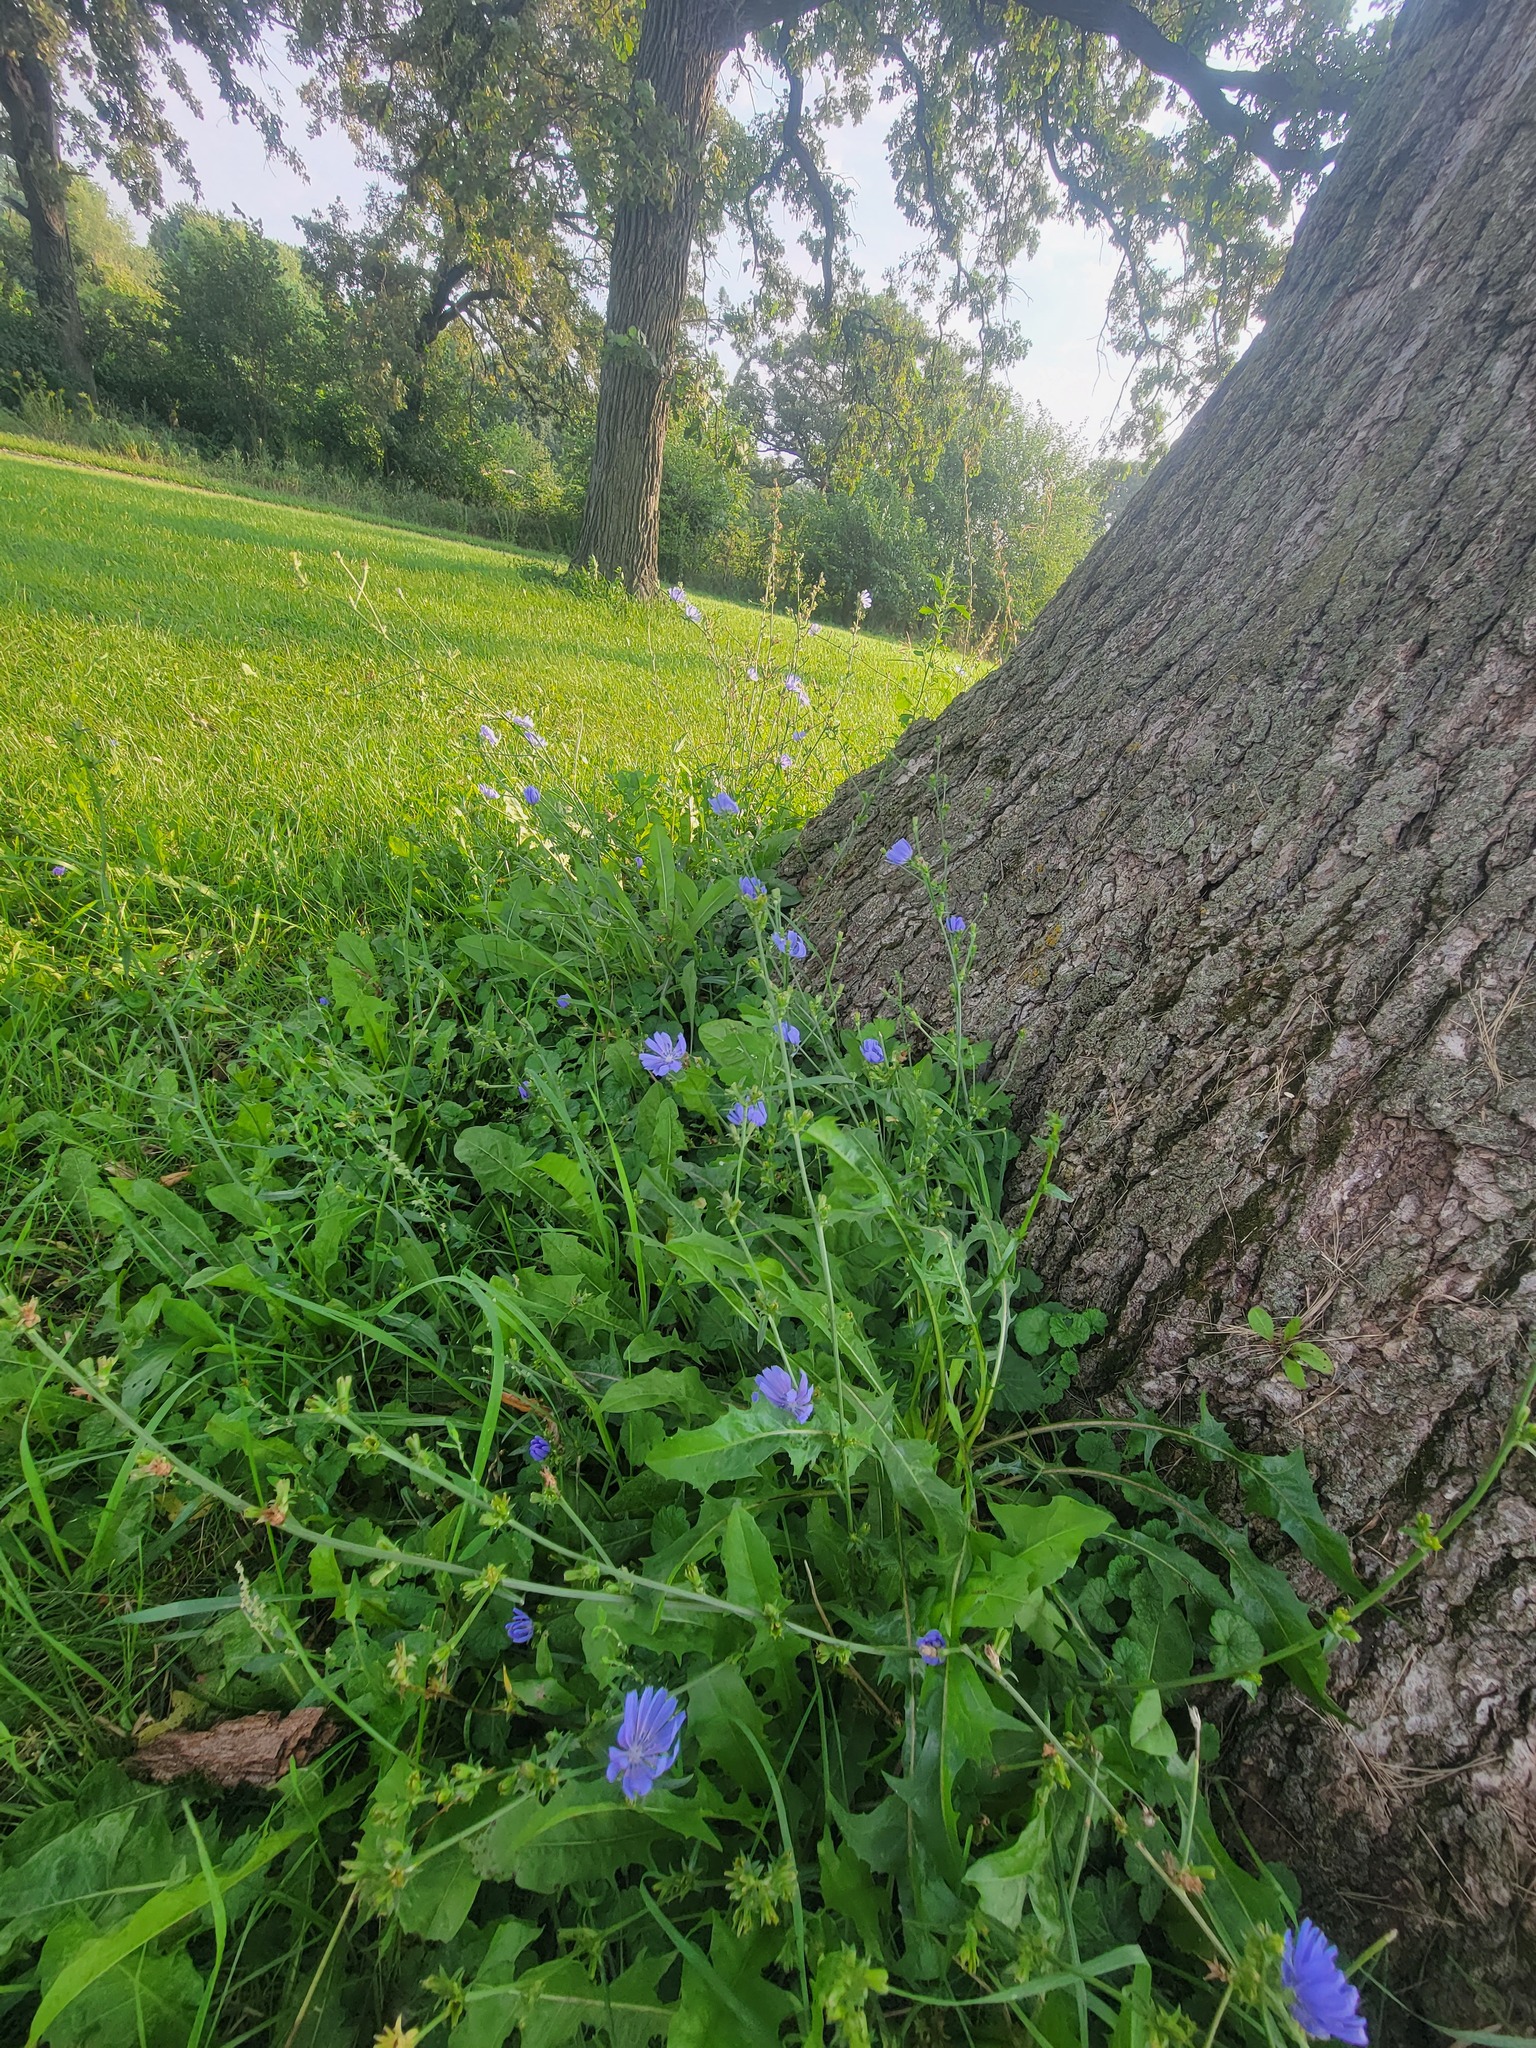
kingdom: Plantae
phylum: Tracheophyta
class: Magnoliopsida
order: Asterales
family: Asteraceae
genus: Cichorium
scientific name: Cichorium intybus
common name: Chicory
